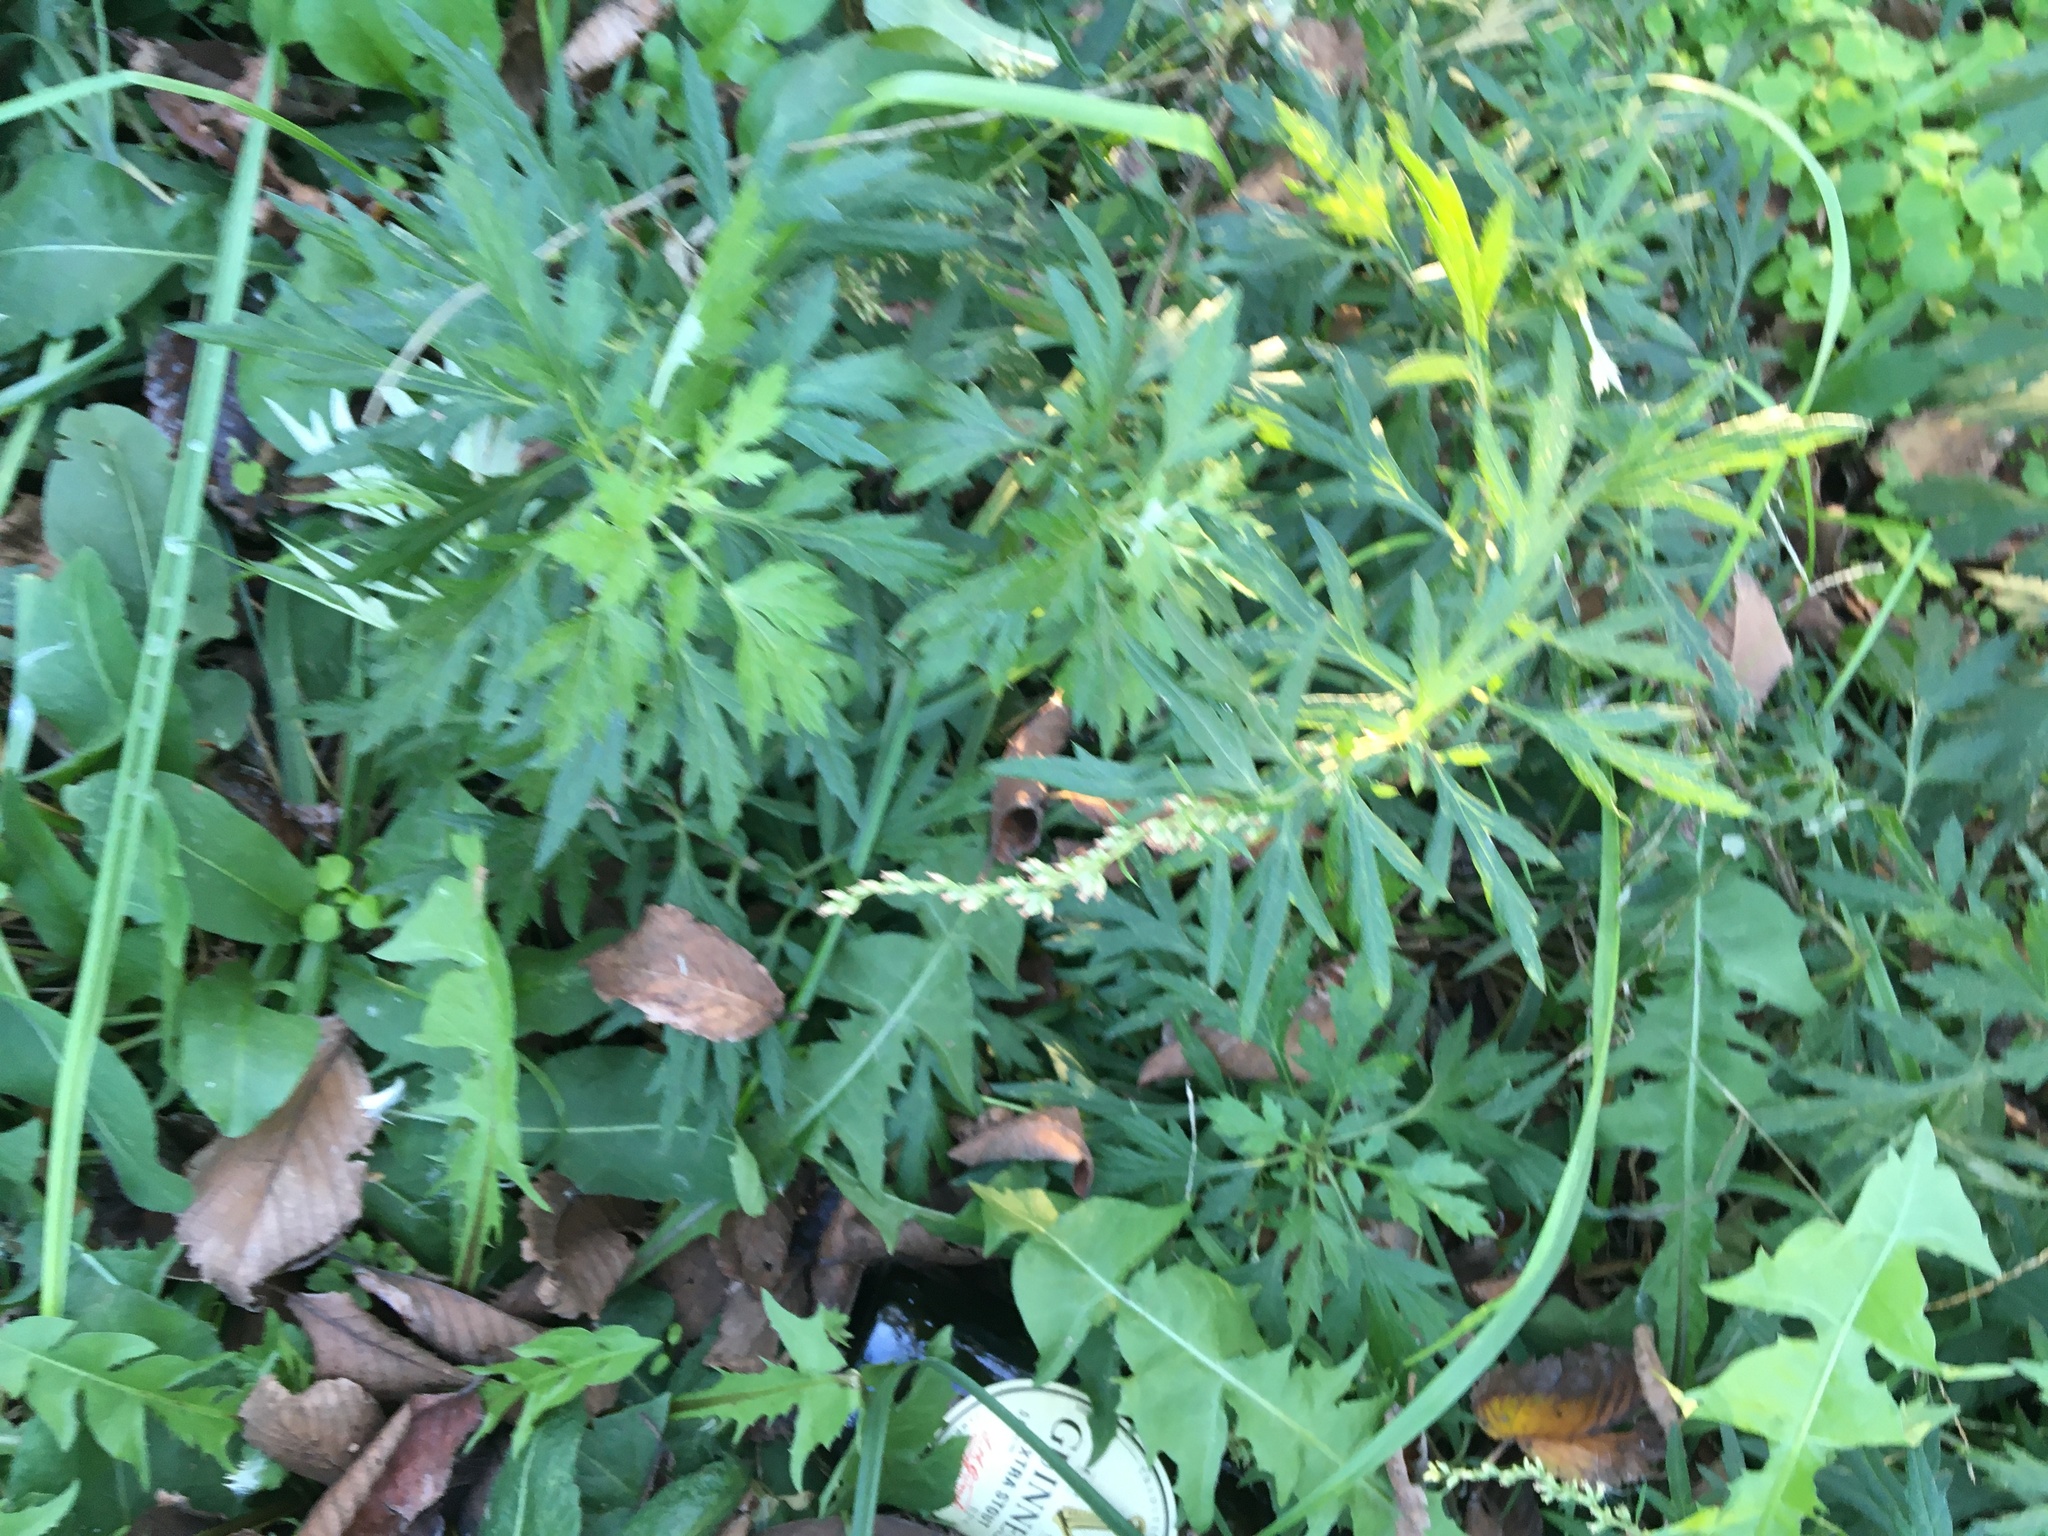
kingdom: Plantae
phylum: Tracheophyta
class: Magnoliopsida
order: Asterales
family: Asteraceae
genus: Artemisia
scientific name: Artemisia vulgaris
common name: Mugwort
